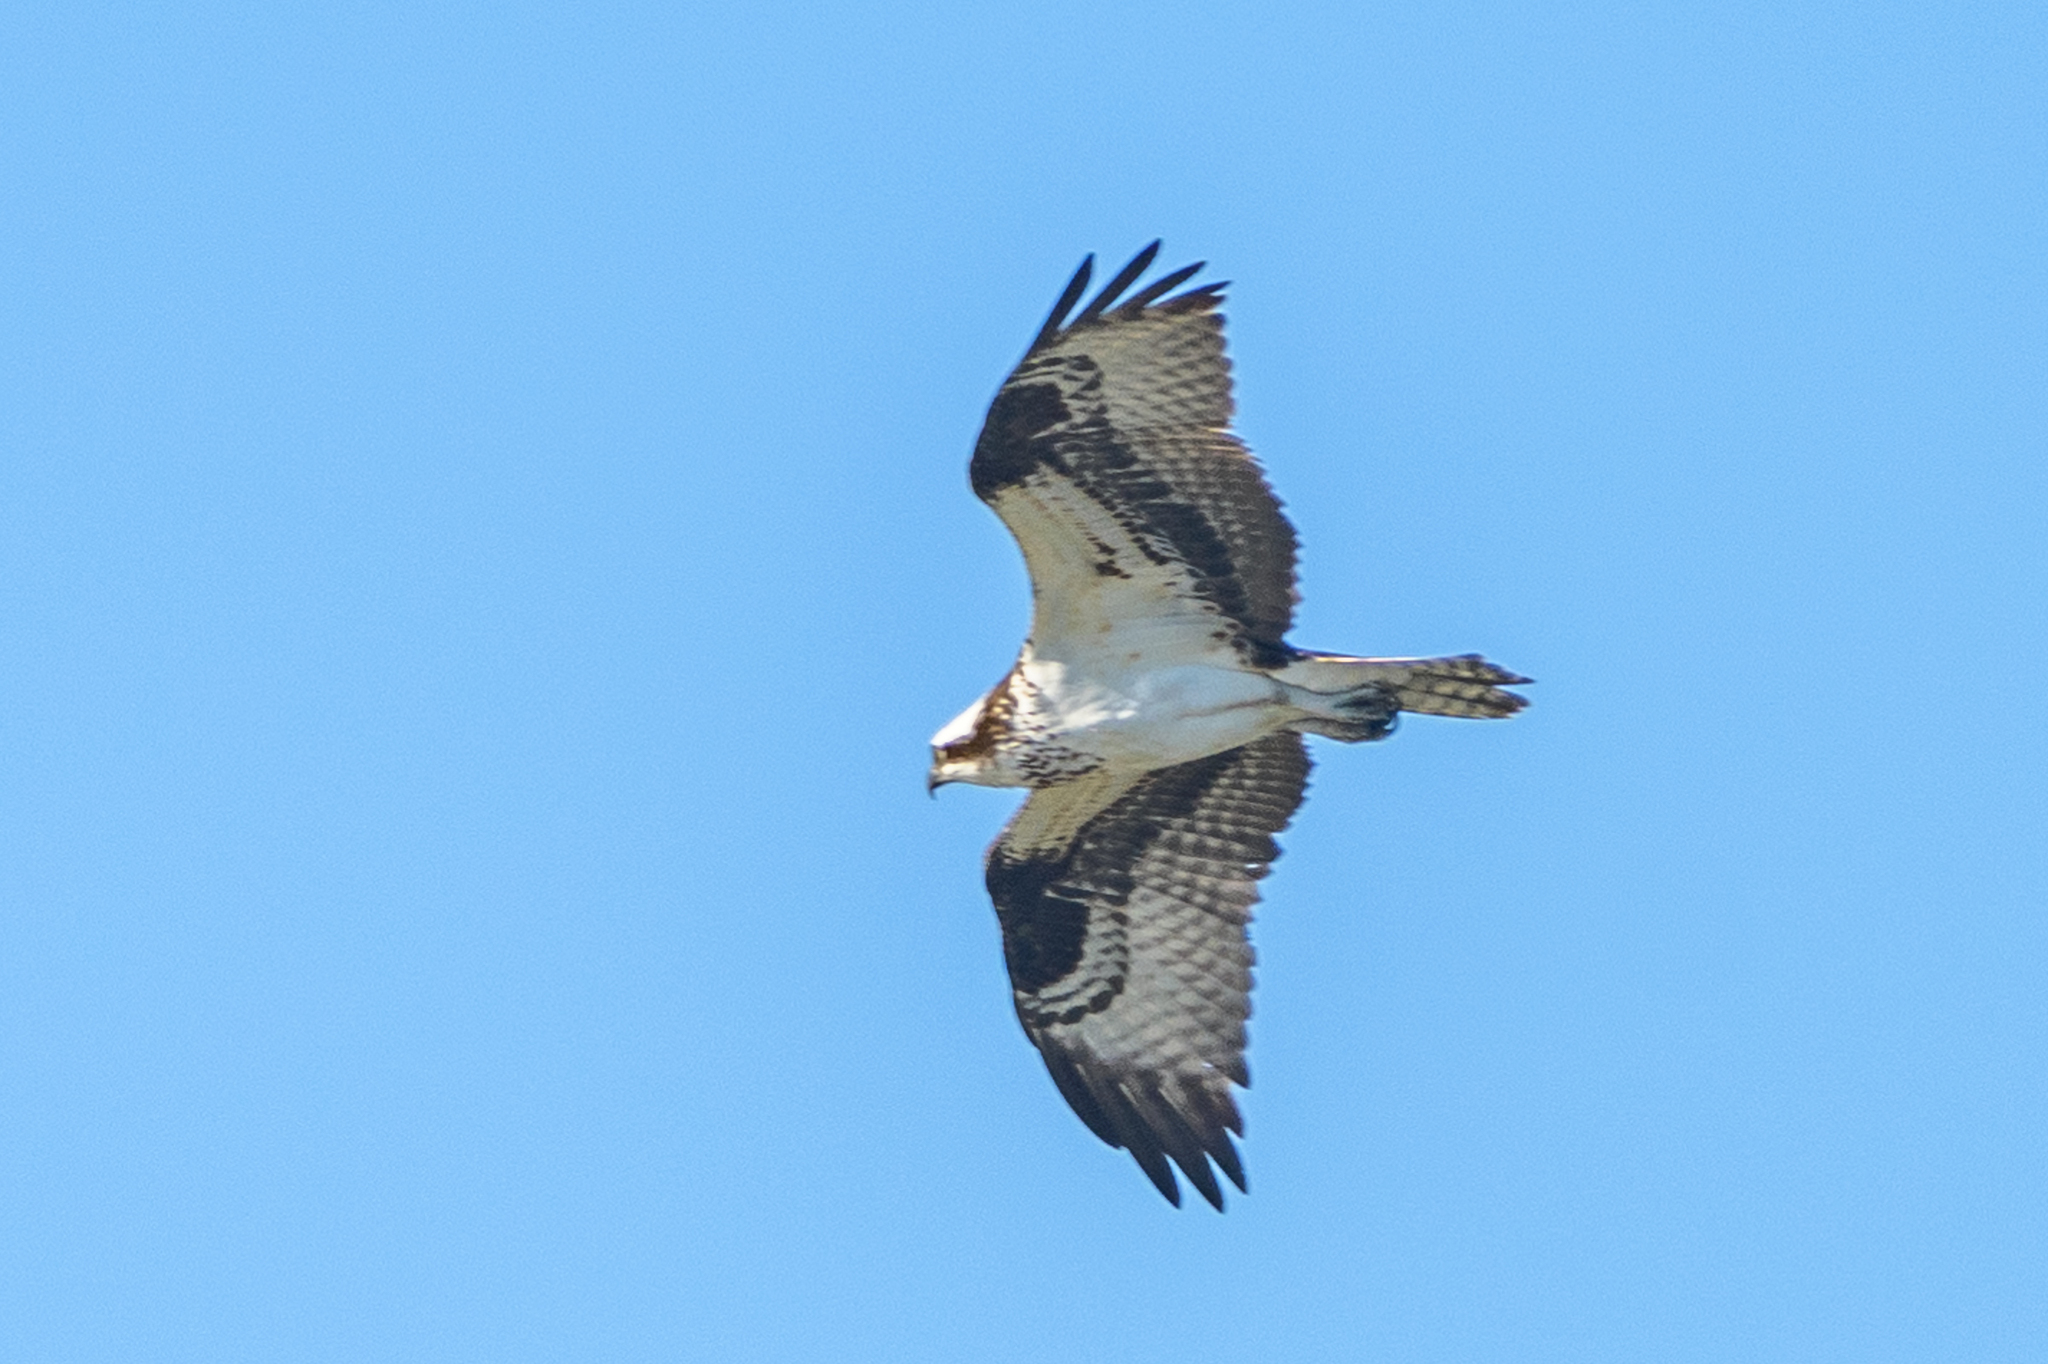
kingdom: Animalia
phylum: Chordata
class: Aves
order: Accipitriformes
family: Pandionidae
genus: Pandion
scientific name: Pandion haliaetus
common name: Osprey
